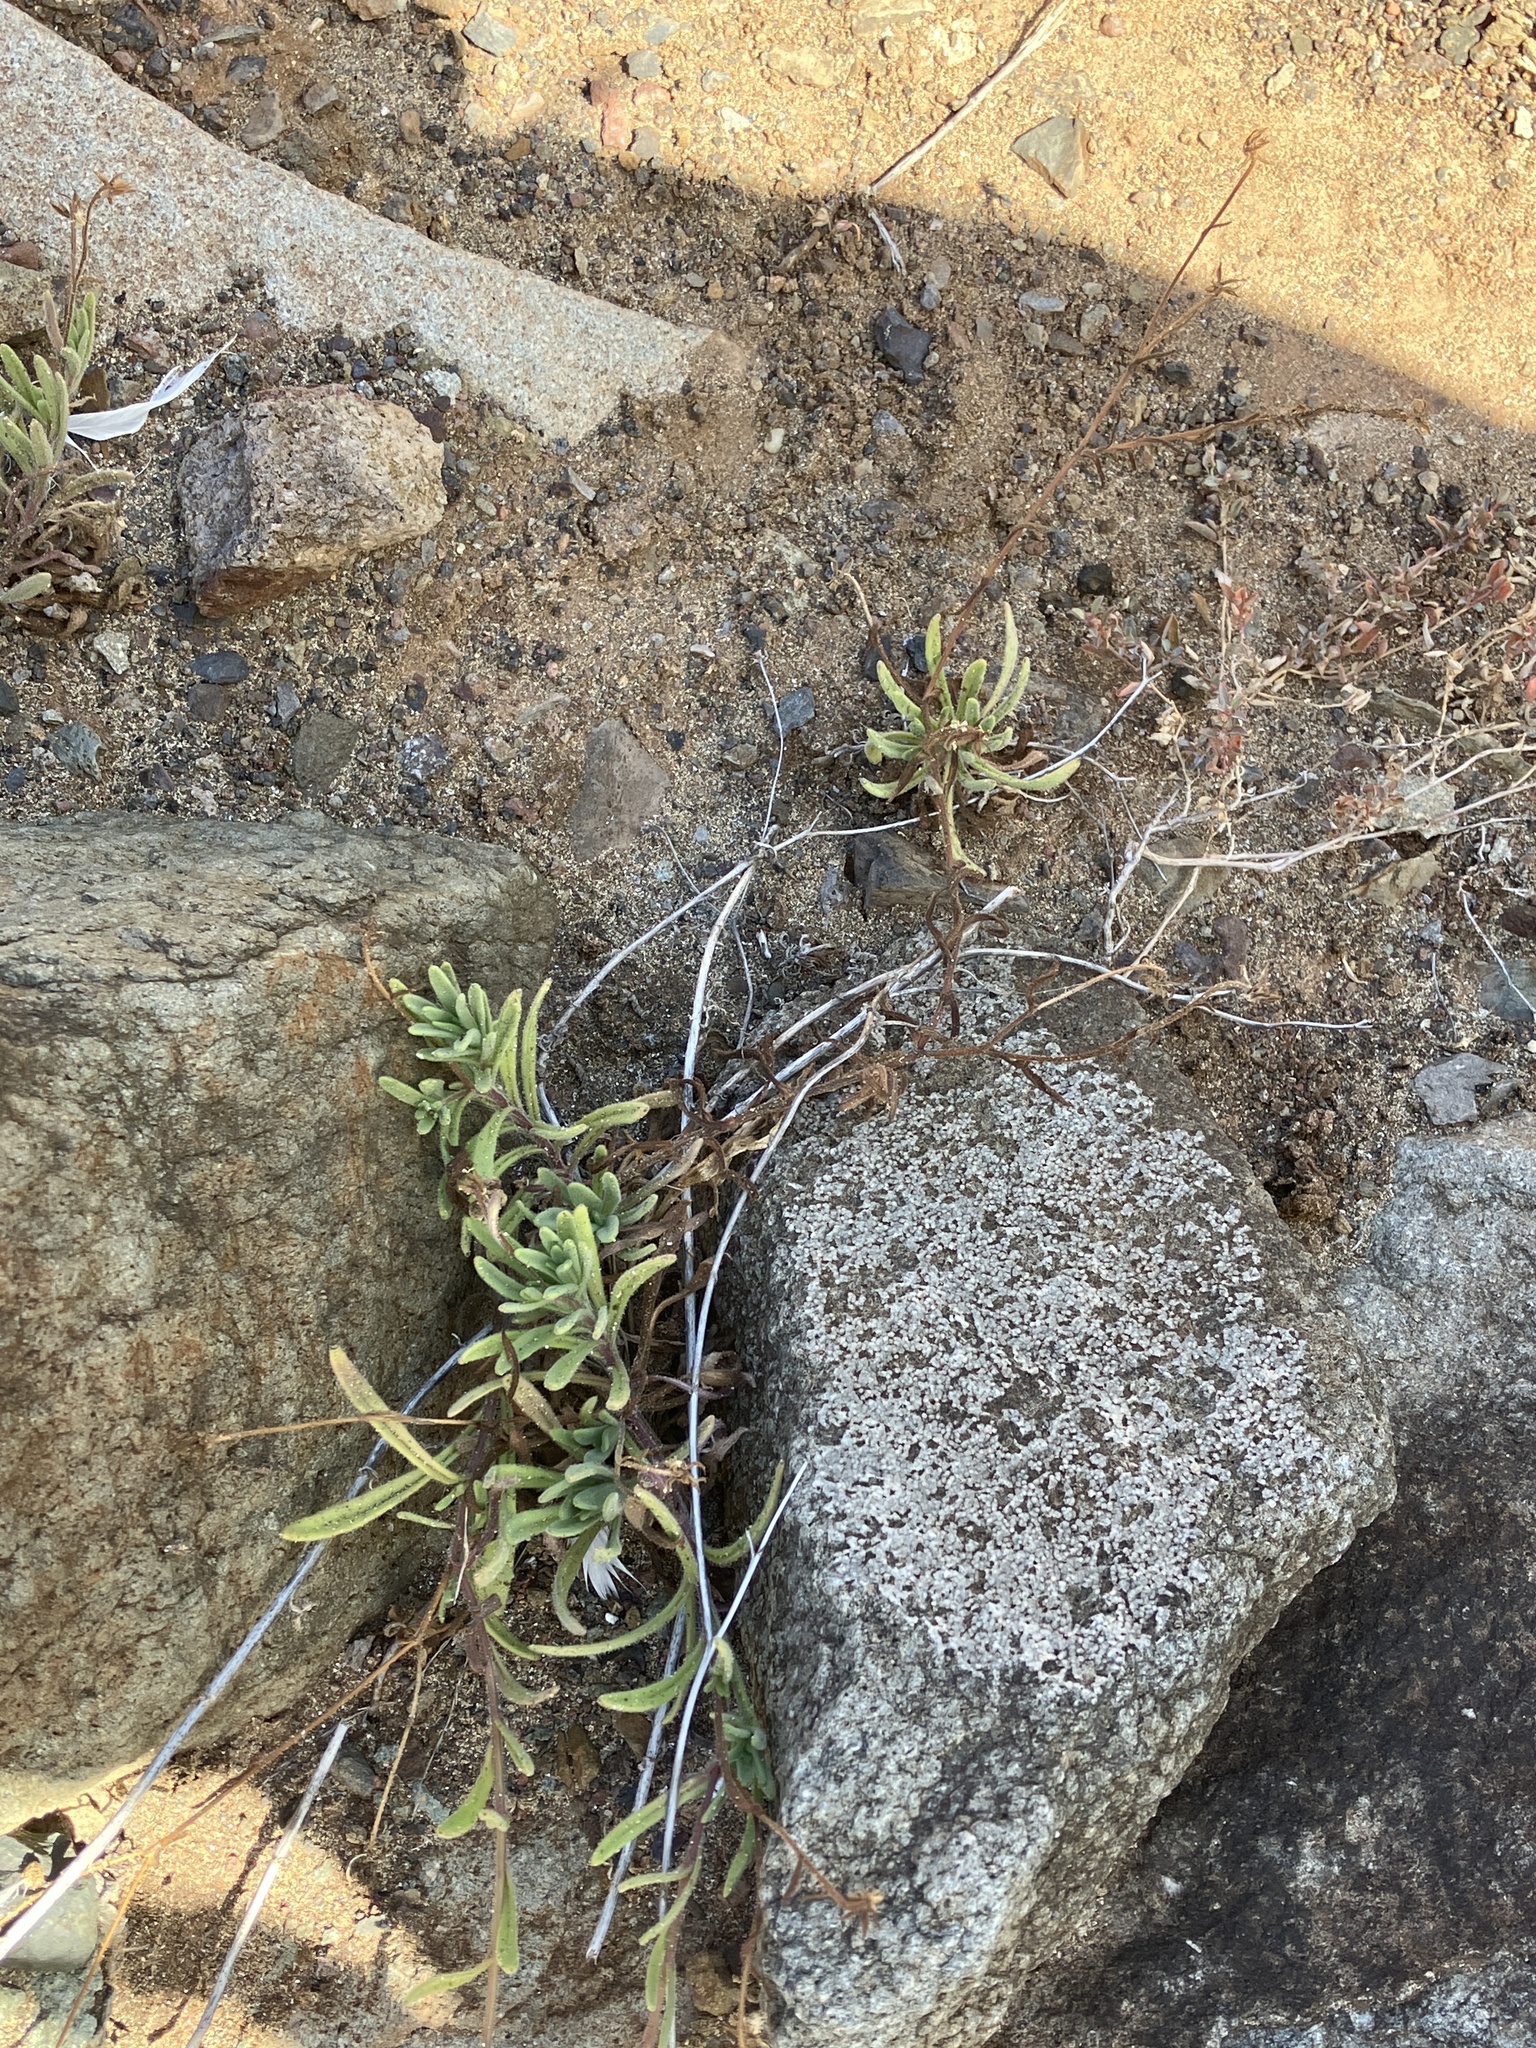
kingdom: Plantae
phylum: Tracheophyta
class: Magnoliopsida
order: Asterales
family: Asteraceae
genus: Osteospermum
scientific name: Osteospermum sanctae-helenae
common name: Boneseed
